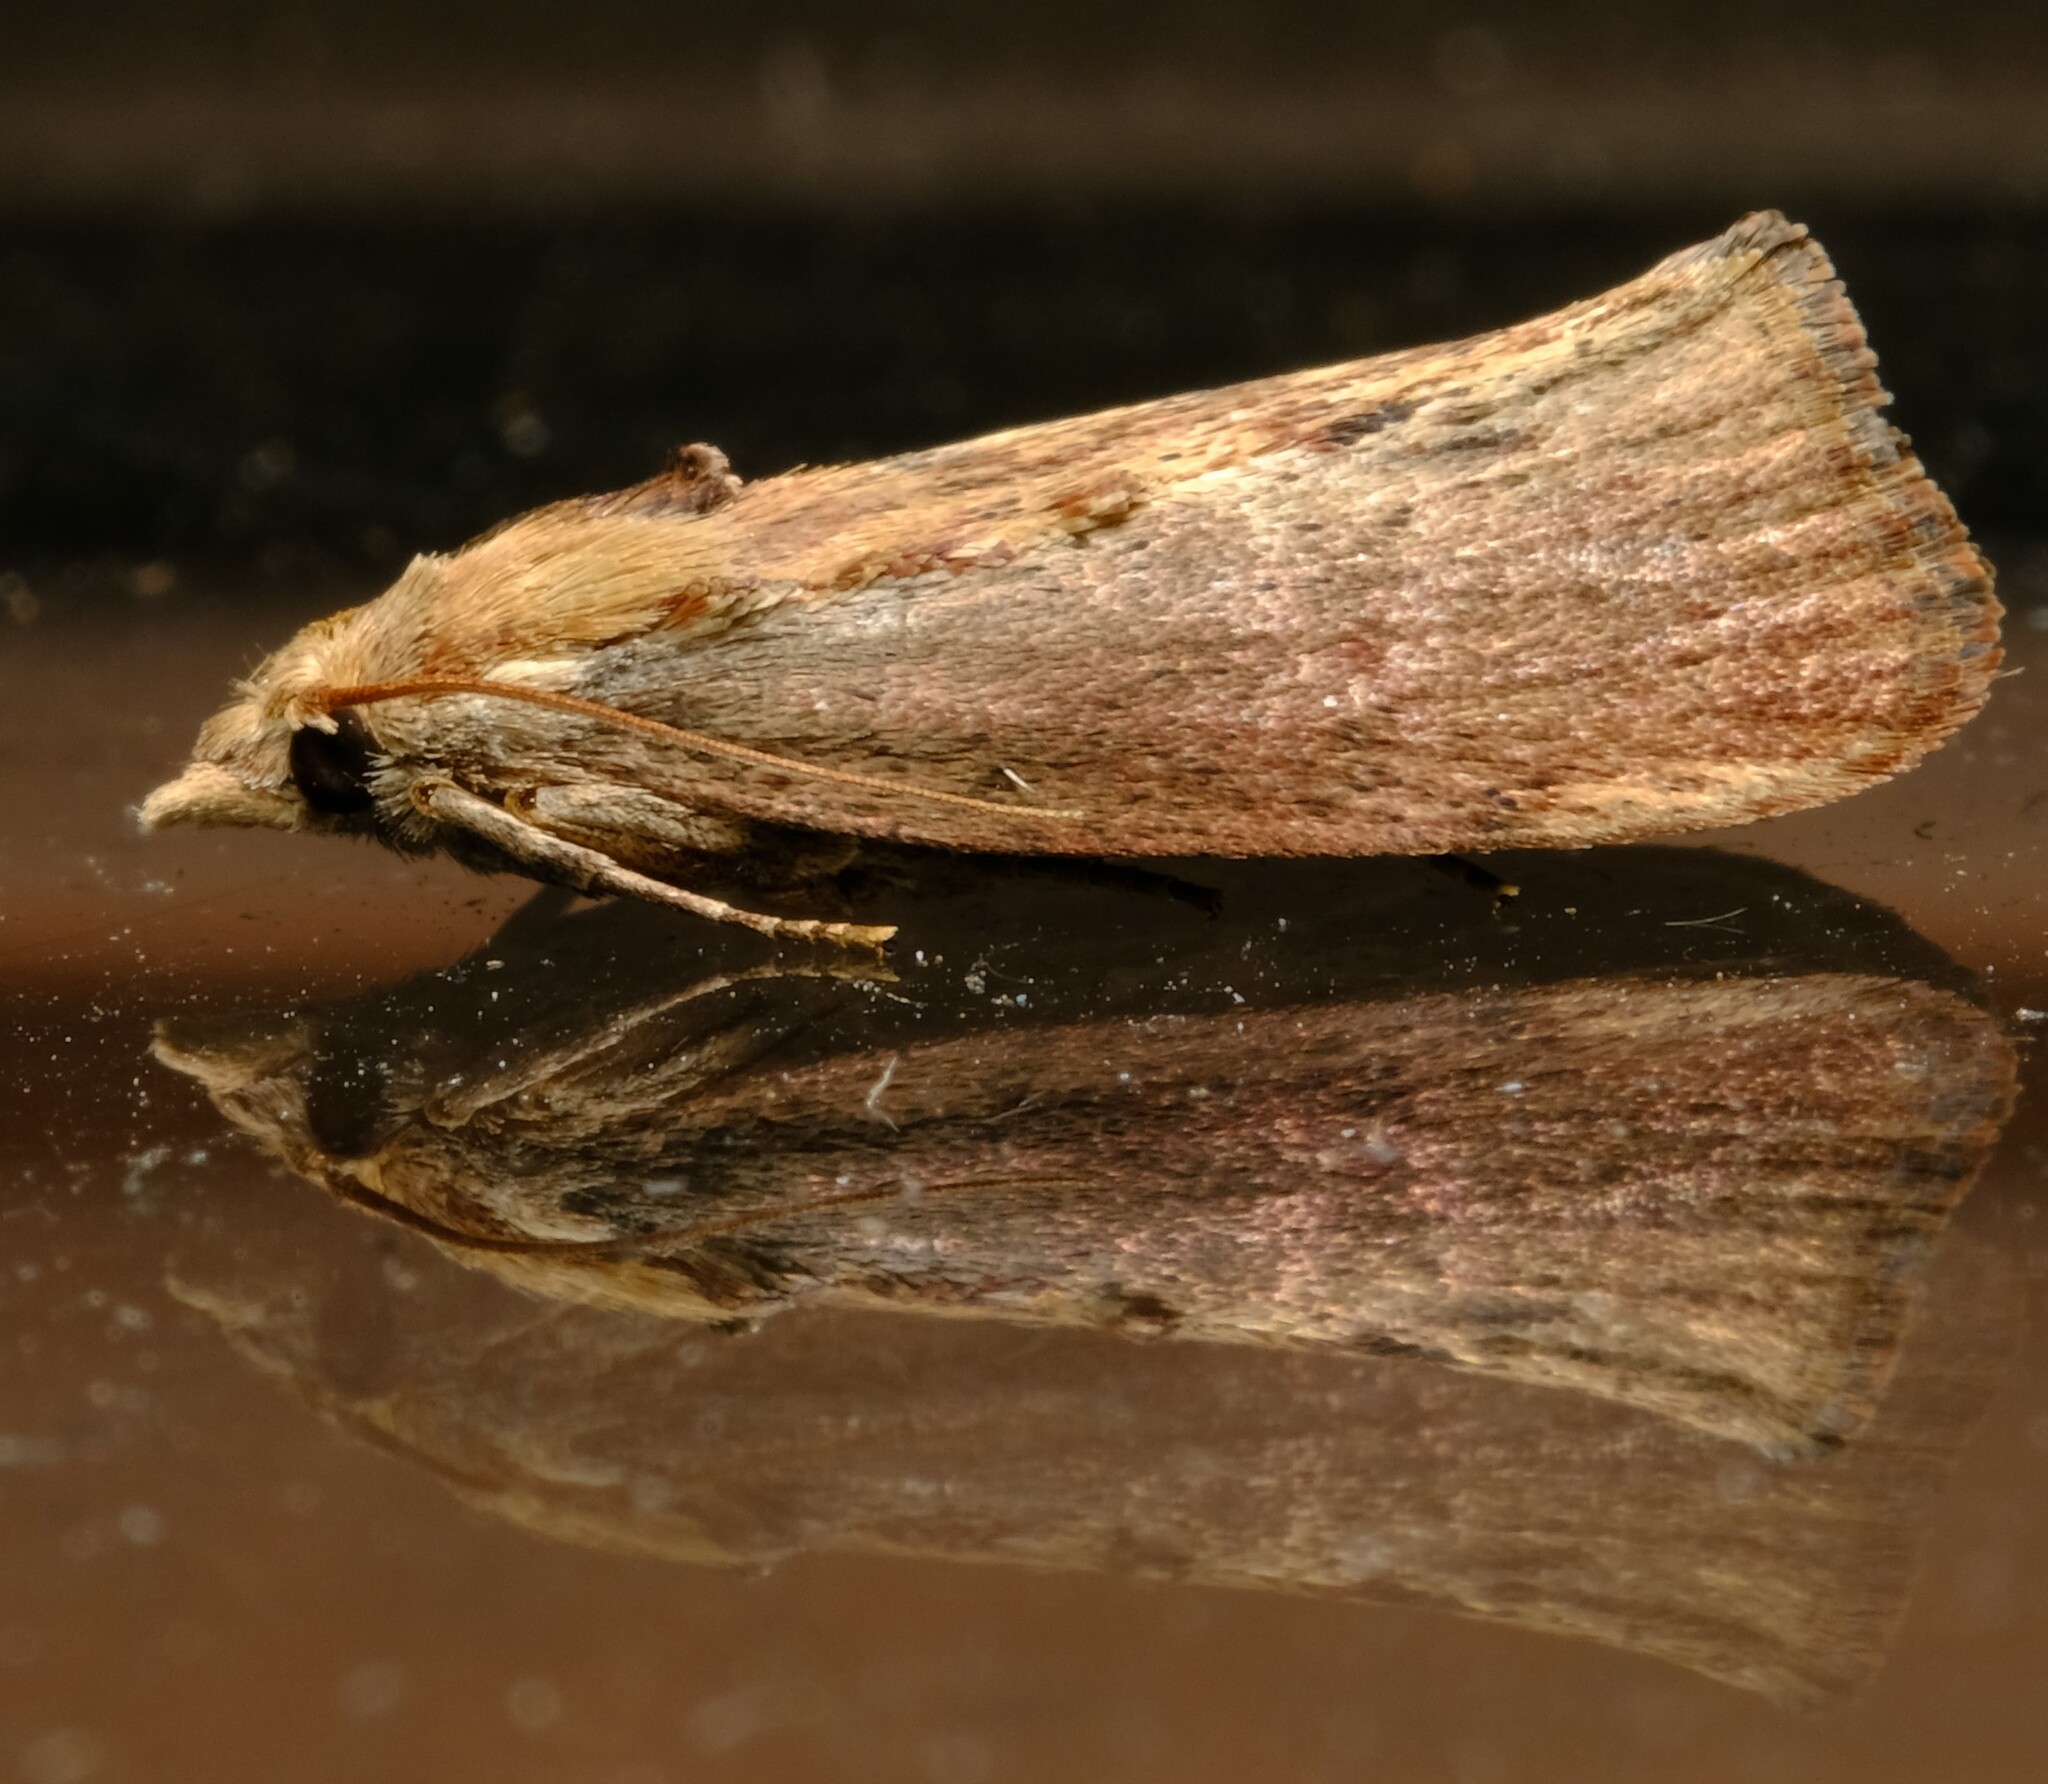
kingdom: Animalia
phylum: Arthropoda
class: Insecta
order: Lepidoptera
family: Pyralidae
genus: Galleria
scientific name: Galleria mellonella
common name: Greater wax moth
